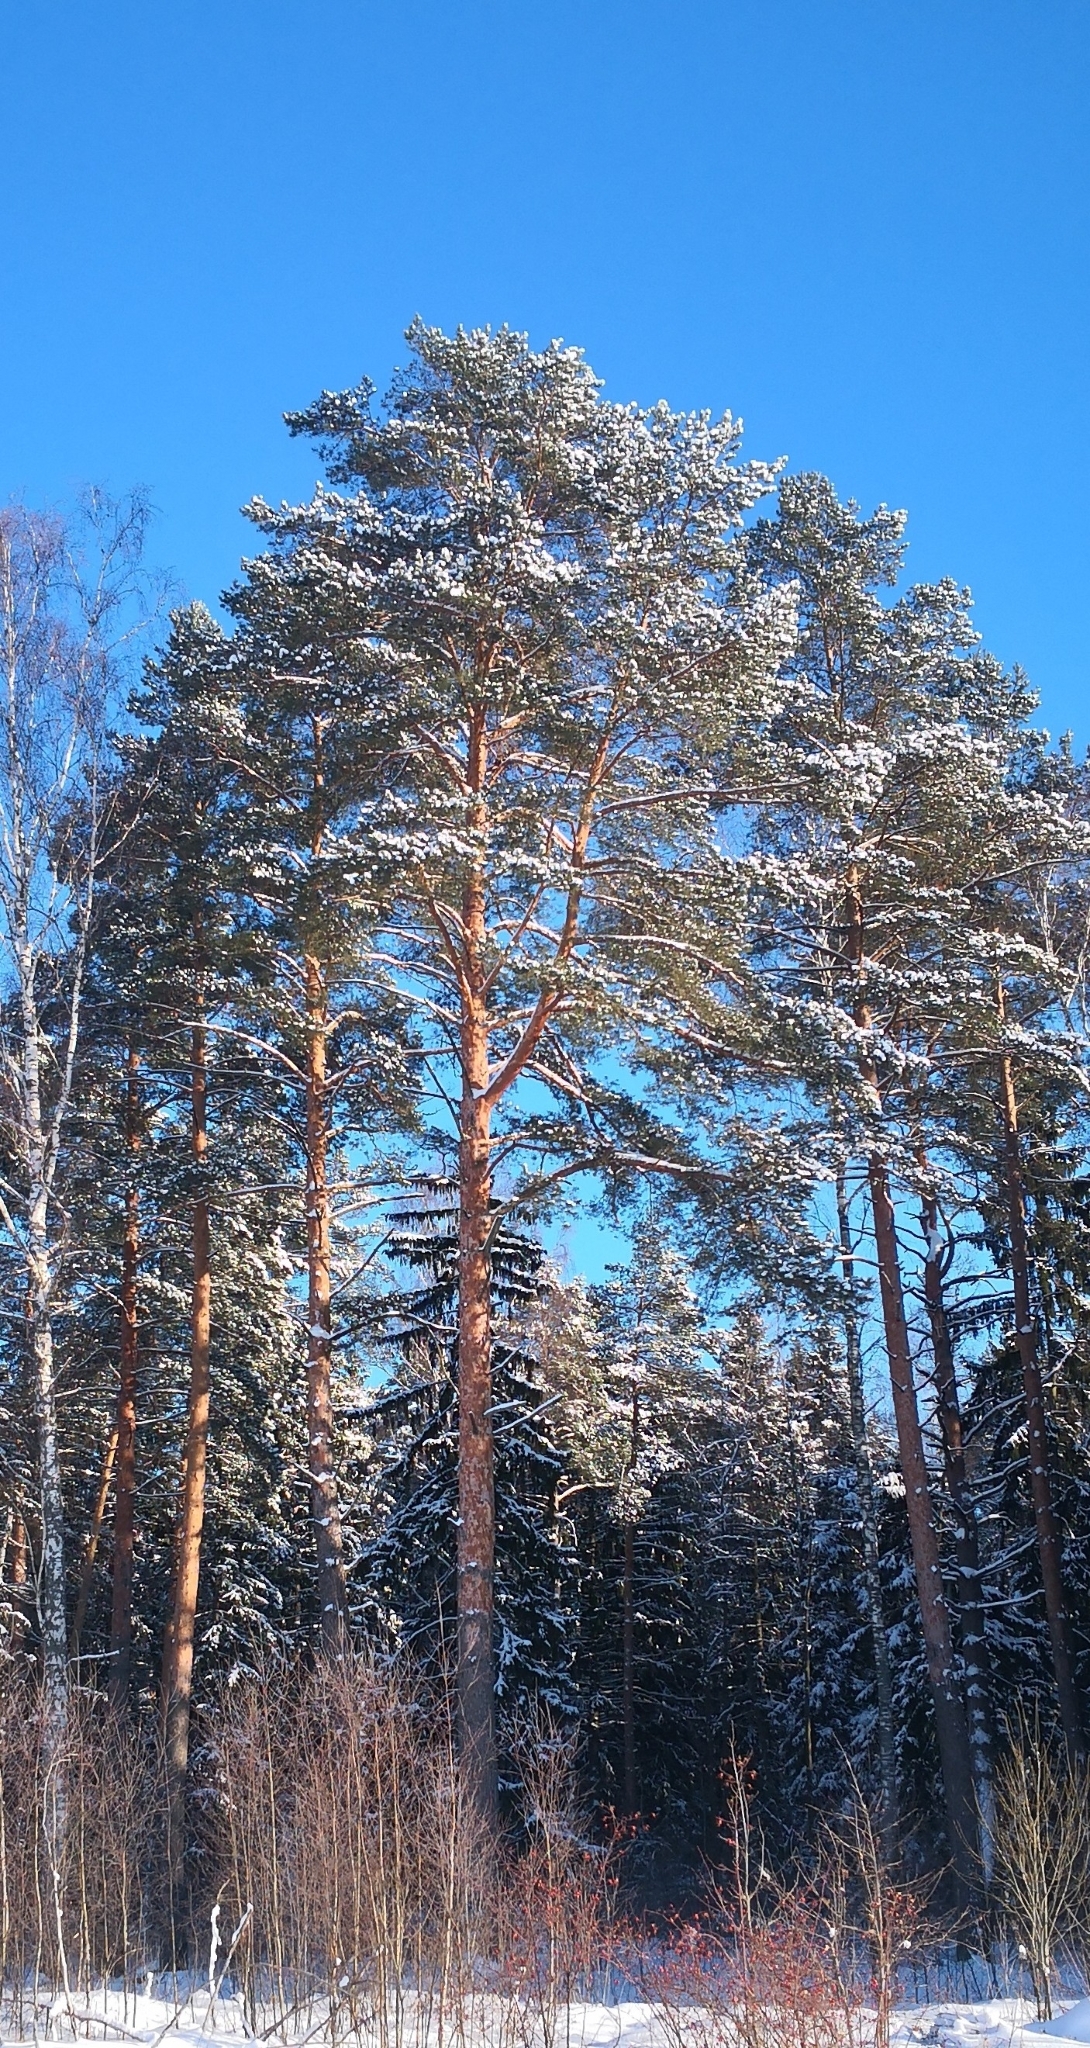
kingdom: Plantae
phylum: Tracheophyta
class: Pinopsida
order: Pinales
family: Pinaceae
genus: Pinus
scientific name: Pinus sylvestris
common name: Scots pine
